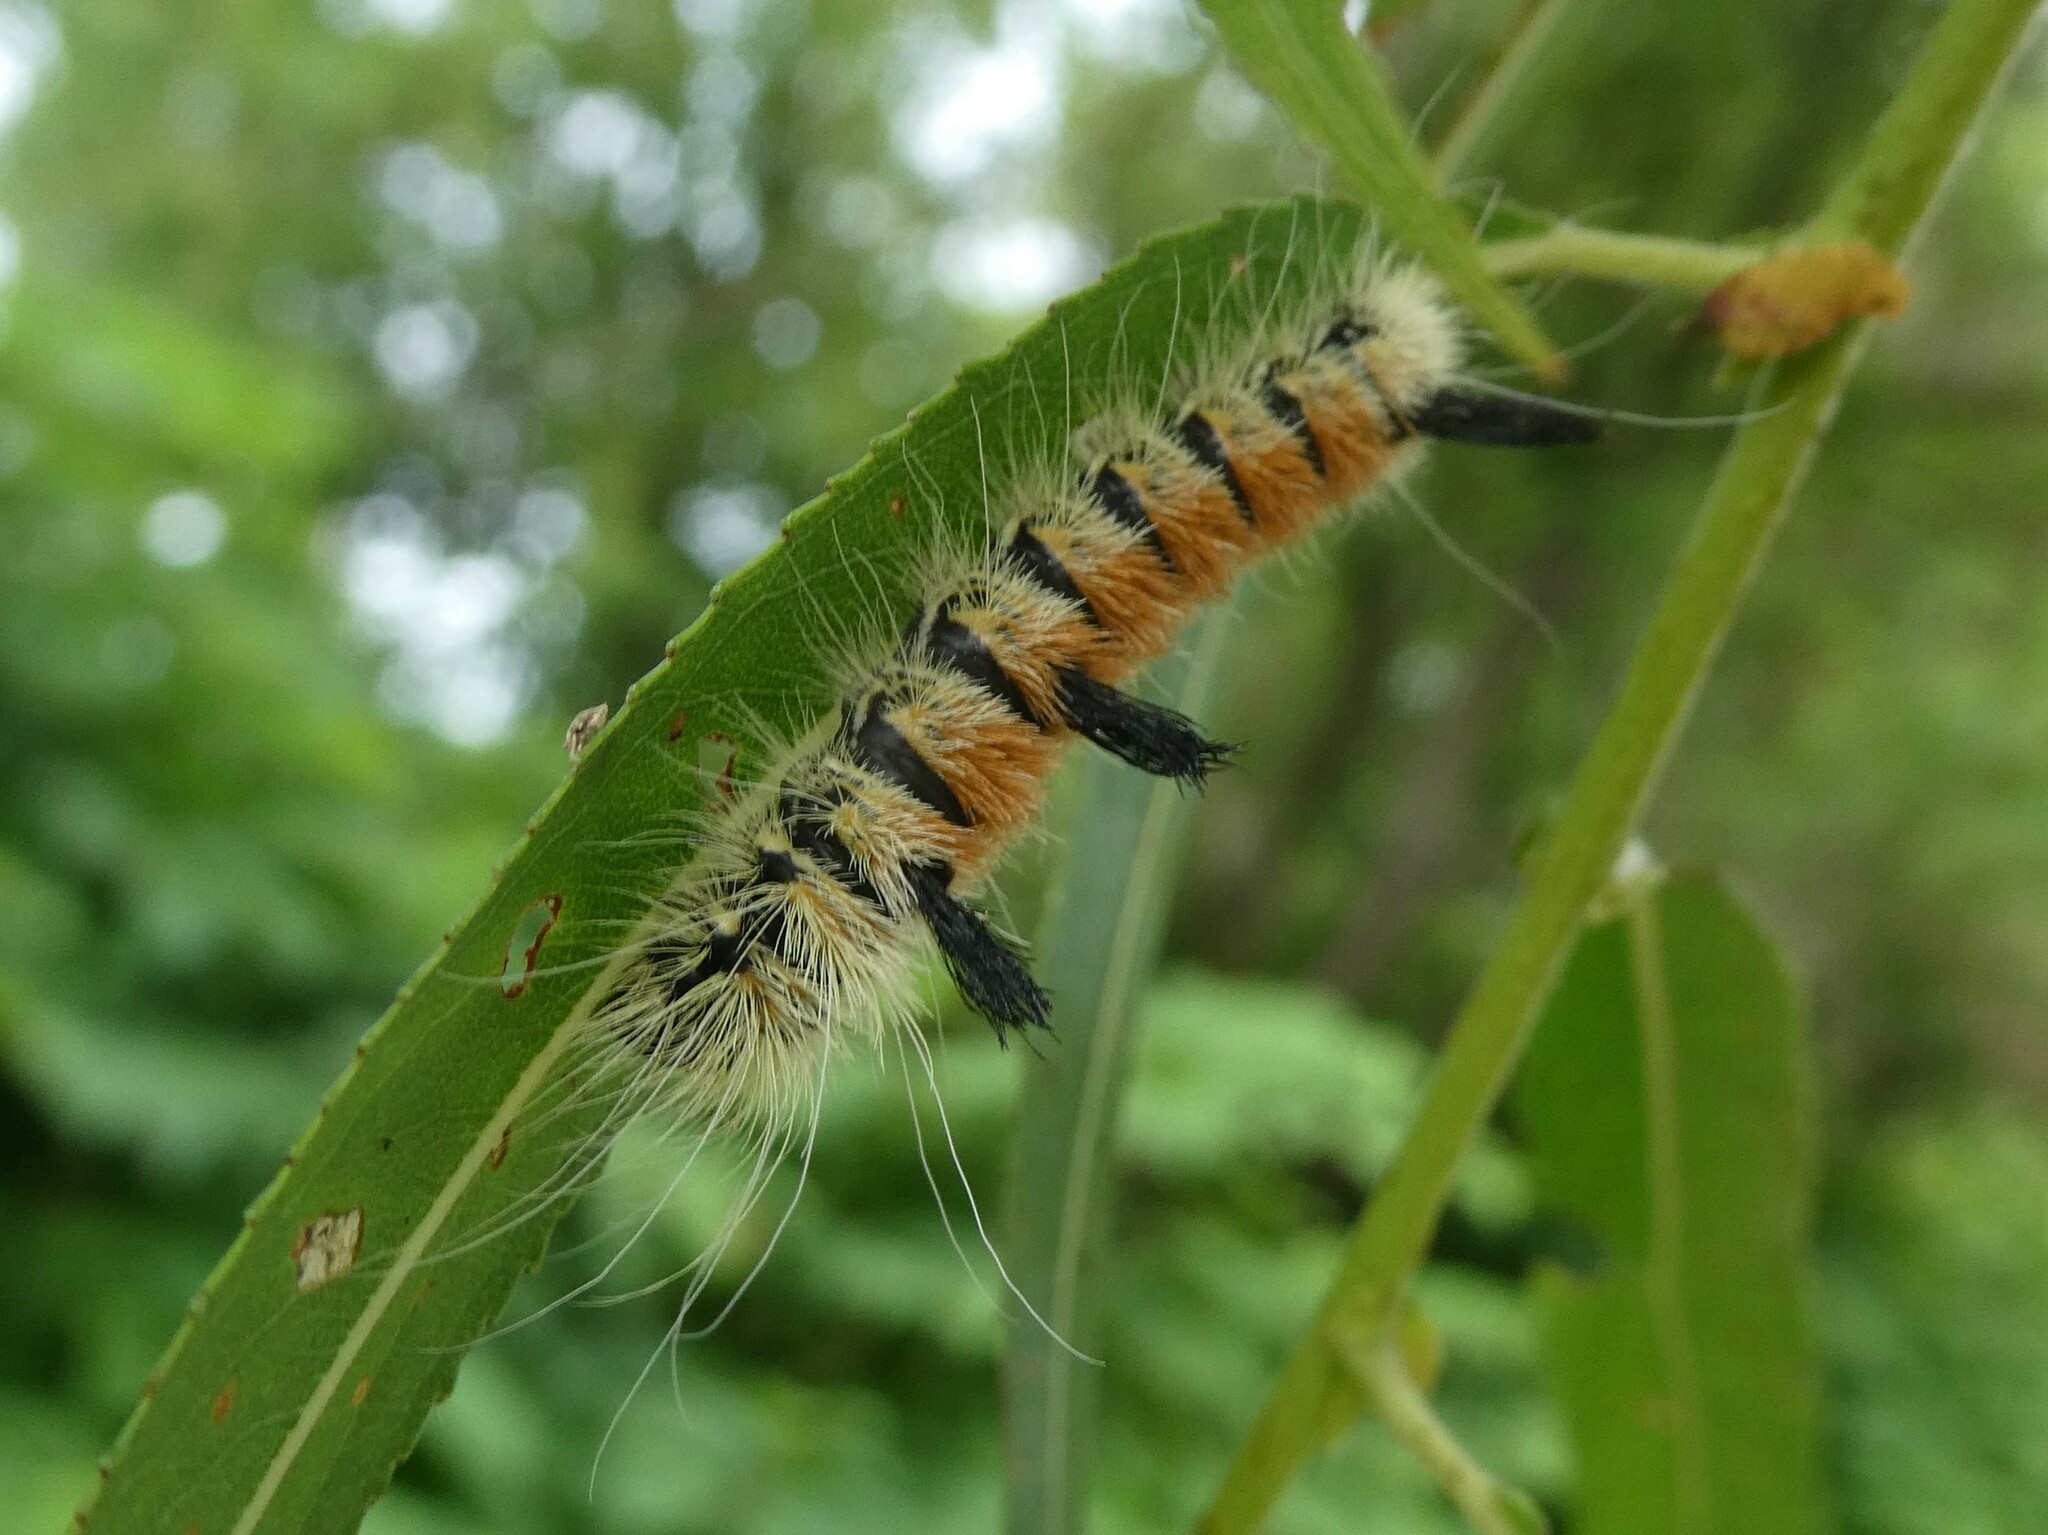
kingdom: Animalia
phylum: Arthropoda
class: Insecta
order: Lepidoptera
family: Noctuidae
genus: Acronicta
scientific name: Acronicta insita
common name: Large gray dagger
